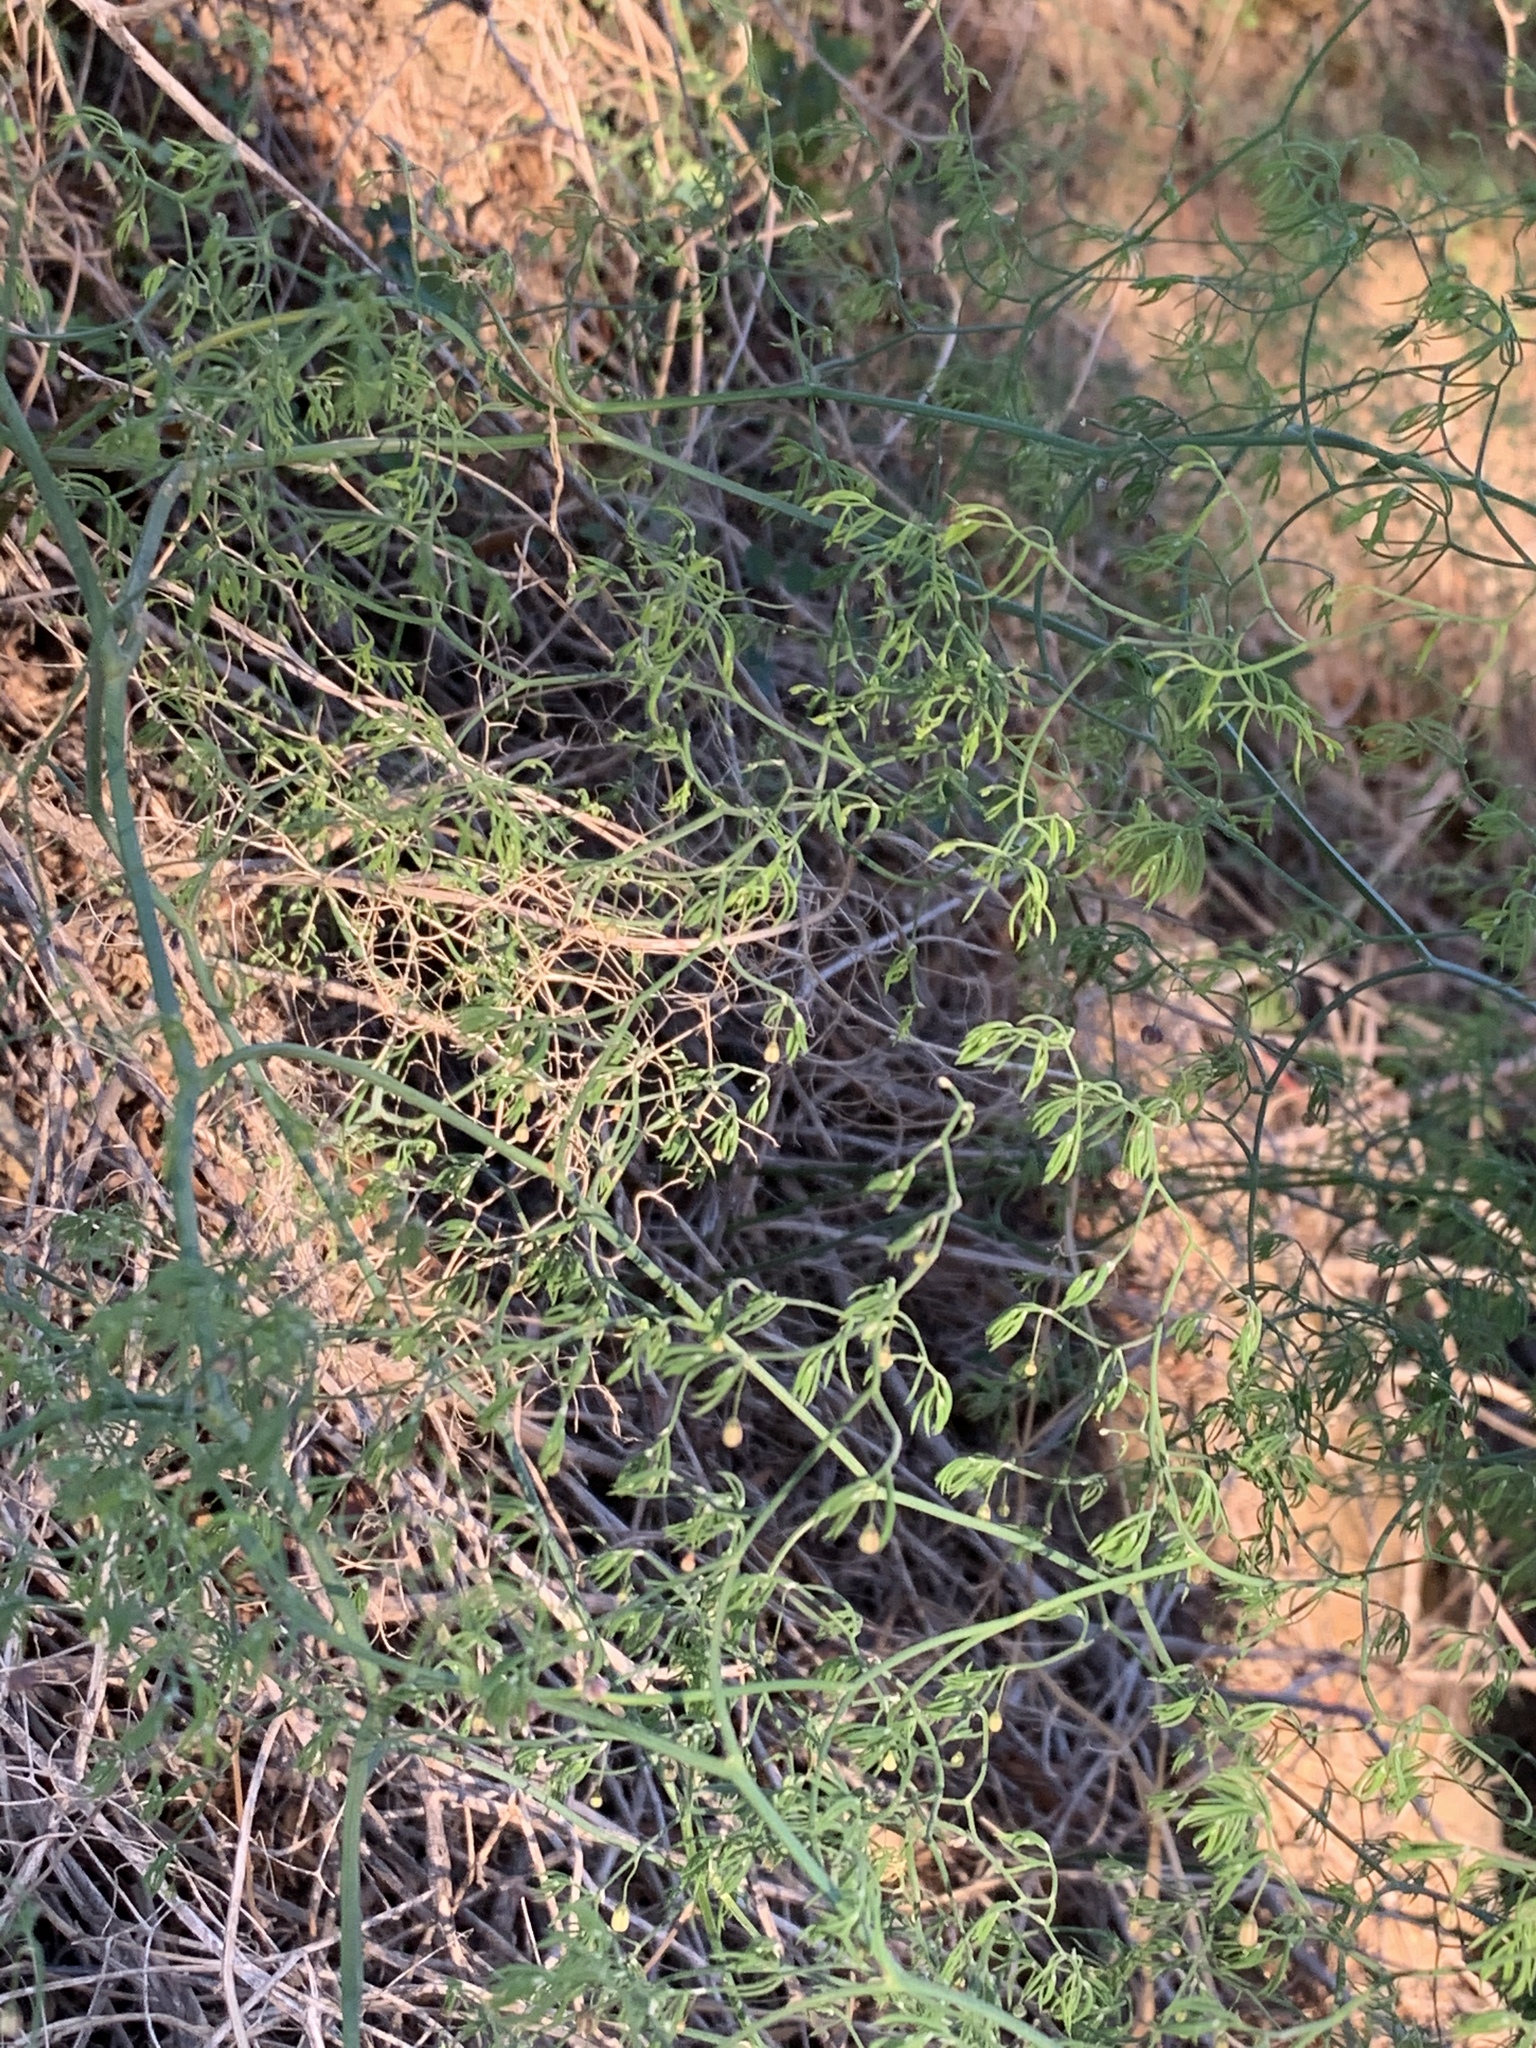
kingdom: Plantae
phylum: Tracheophyta
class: Liliopsida
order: Asparagales
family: Asparagaceae
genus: Asparagus
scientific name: Asparagus declinatus
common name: Bridal-creeper
